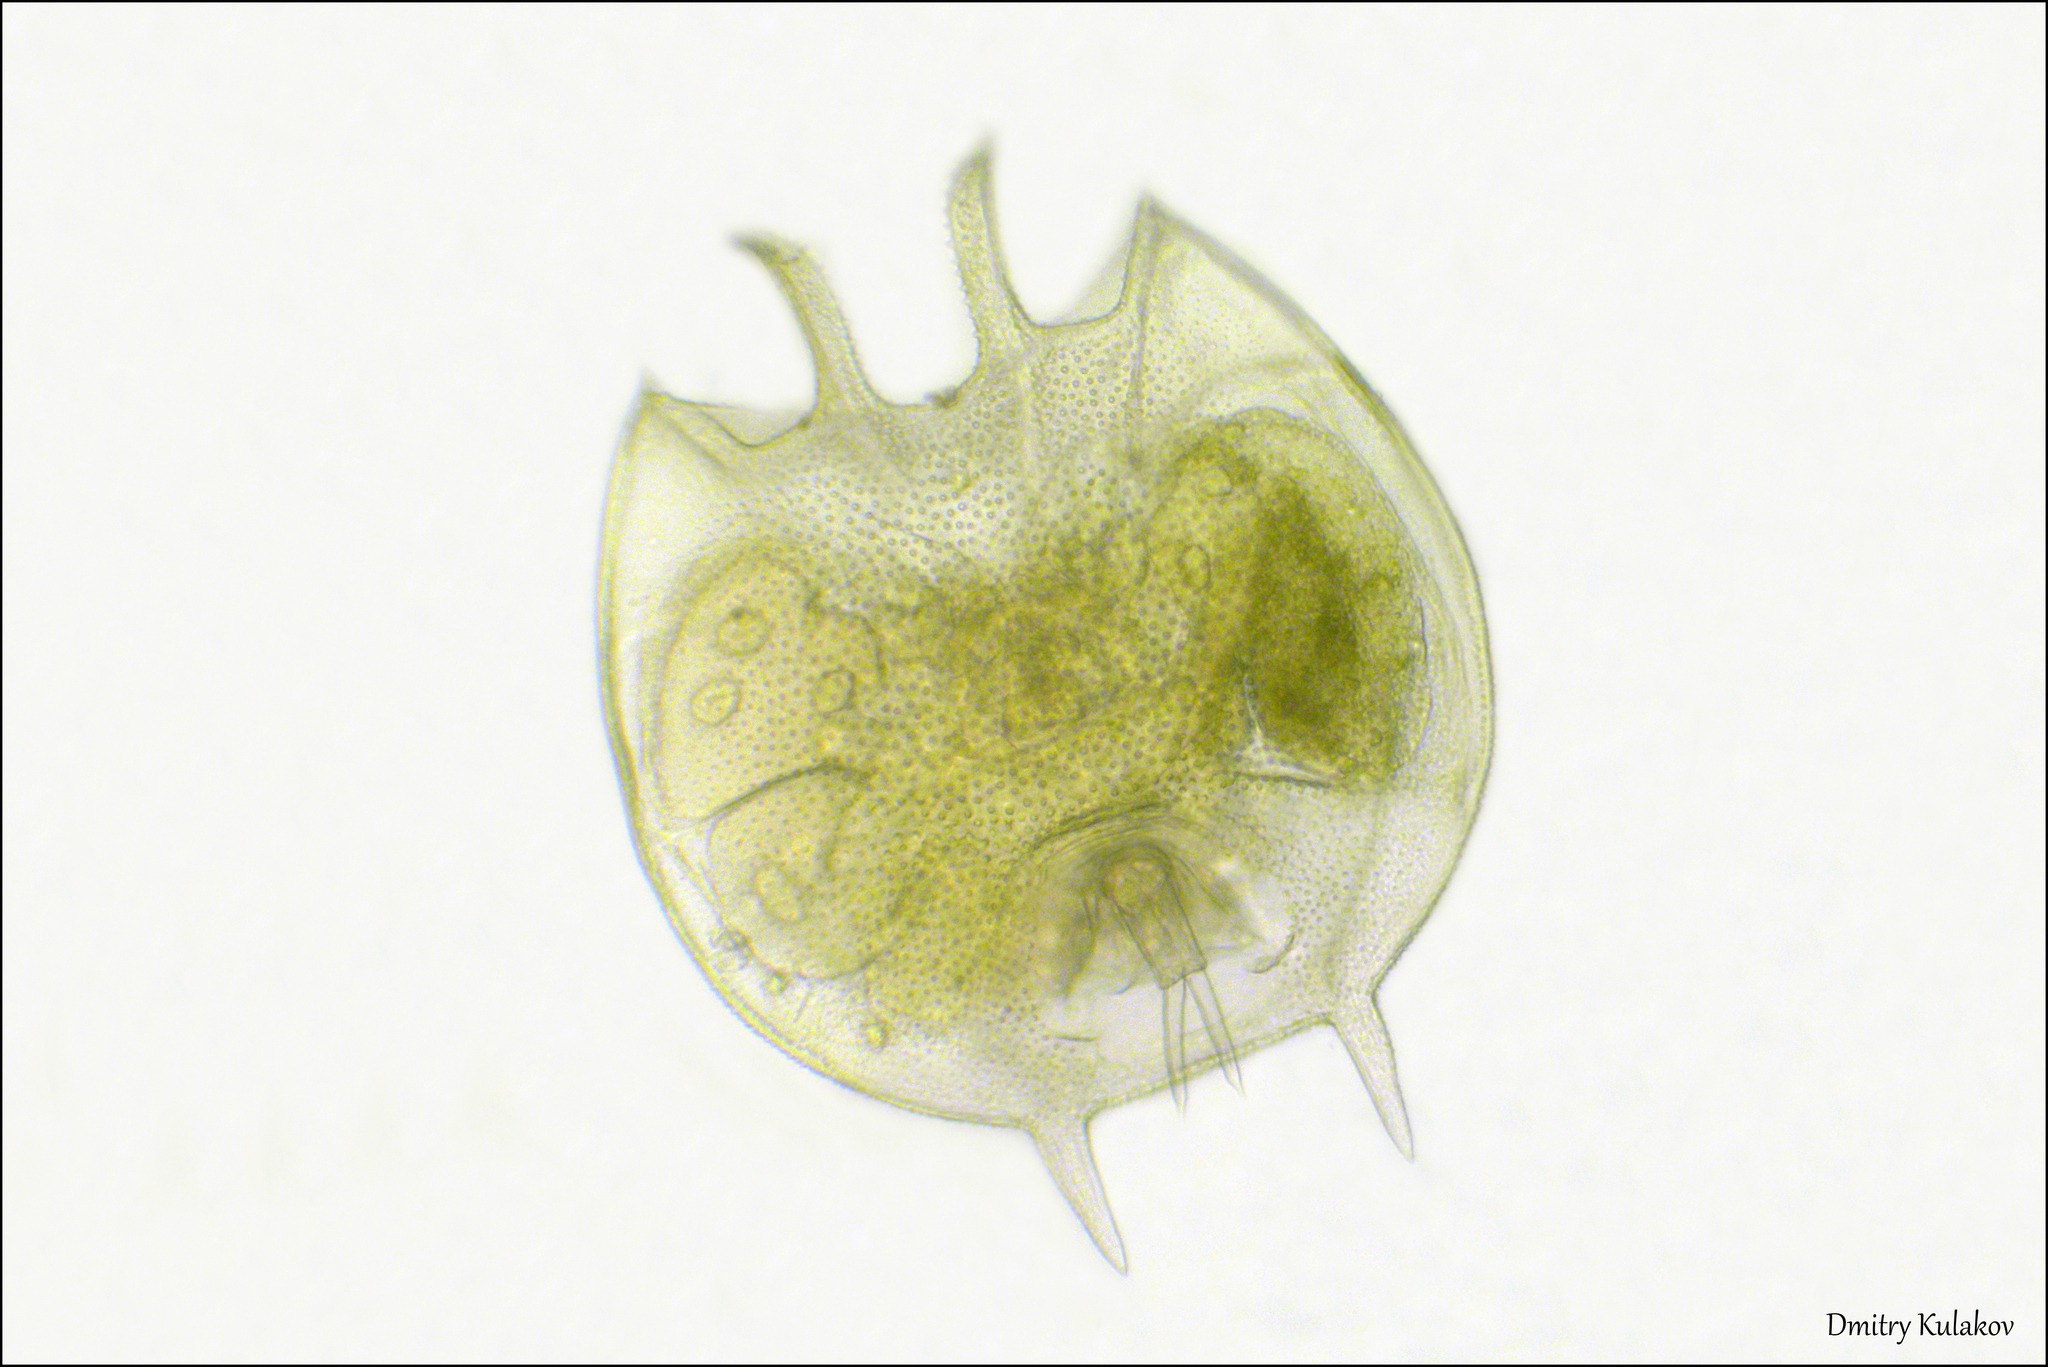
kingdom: Animalia
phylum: Rotifera
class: Eurotatoria
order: Ploima
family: Brachionidae
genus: Platyias
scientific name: Platyias quadricornis
